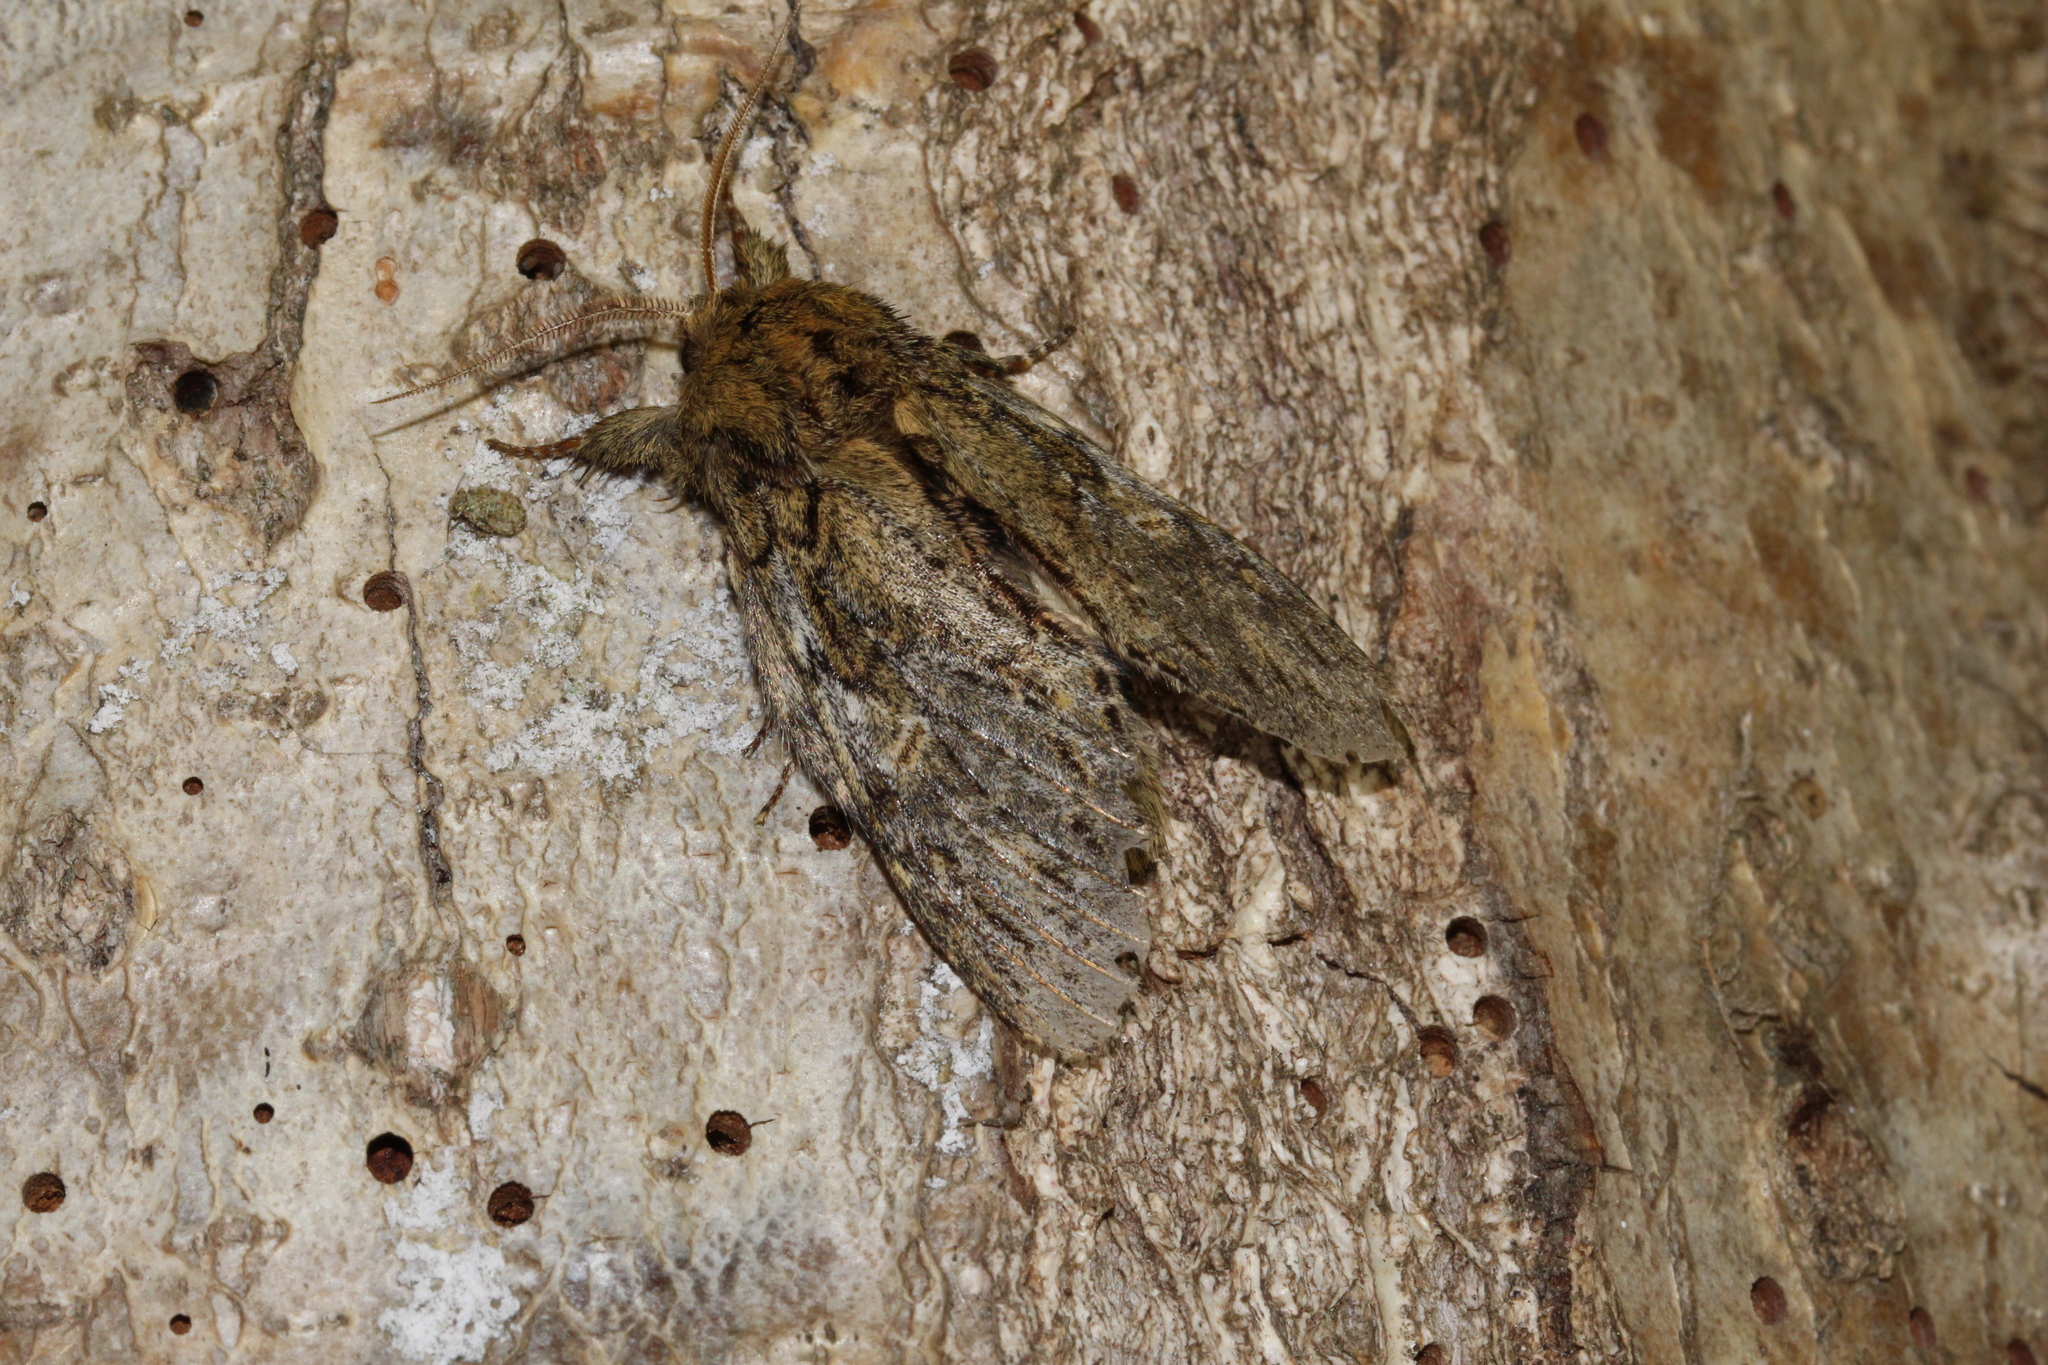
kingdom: Animalia
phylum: Arthropoda
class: Insecta
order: Lepidoptera
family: Notodontidae
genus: Peridea
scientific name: Peridea anceps
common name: Great prominent
